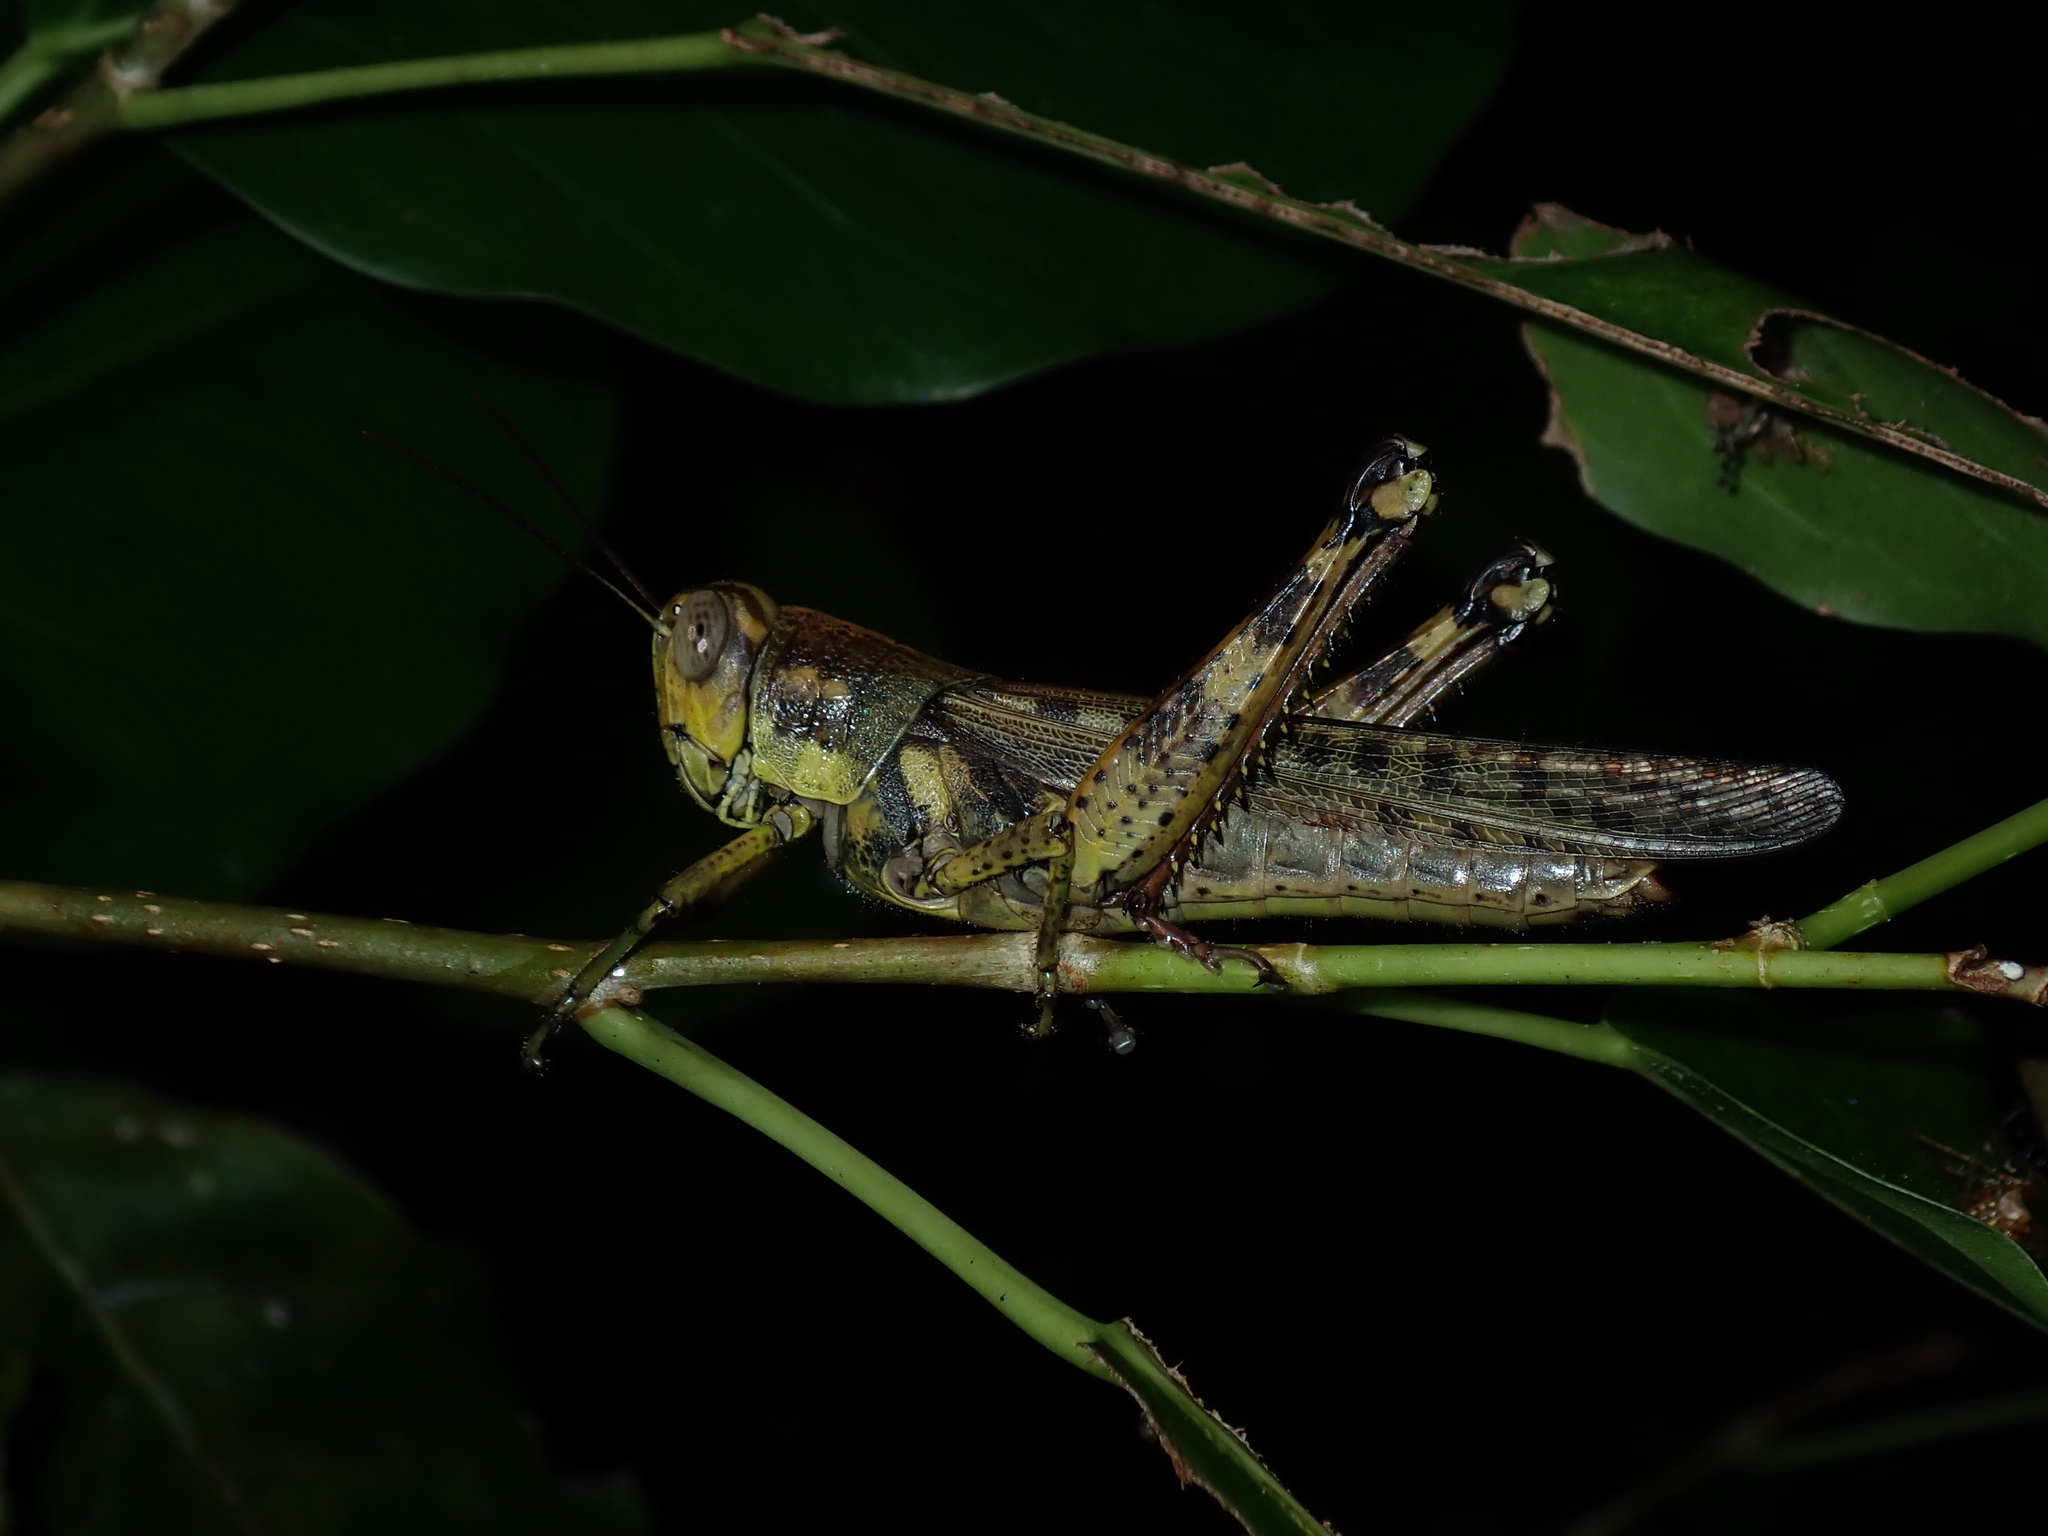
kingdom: Animalia
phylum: Arthropoda
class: Insecta
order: Orthoptera
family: Acrididae
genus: Valanga
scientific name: Valanga meleager
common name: Coastal valanga
